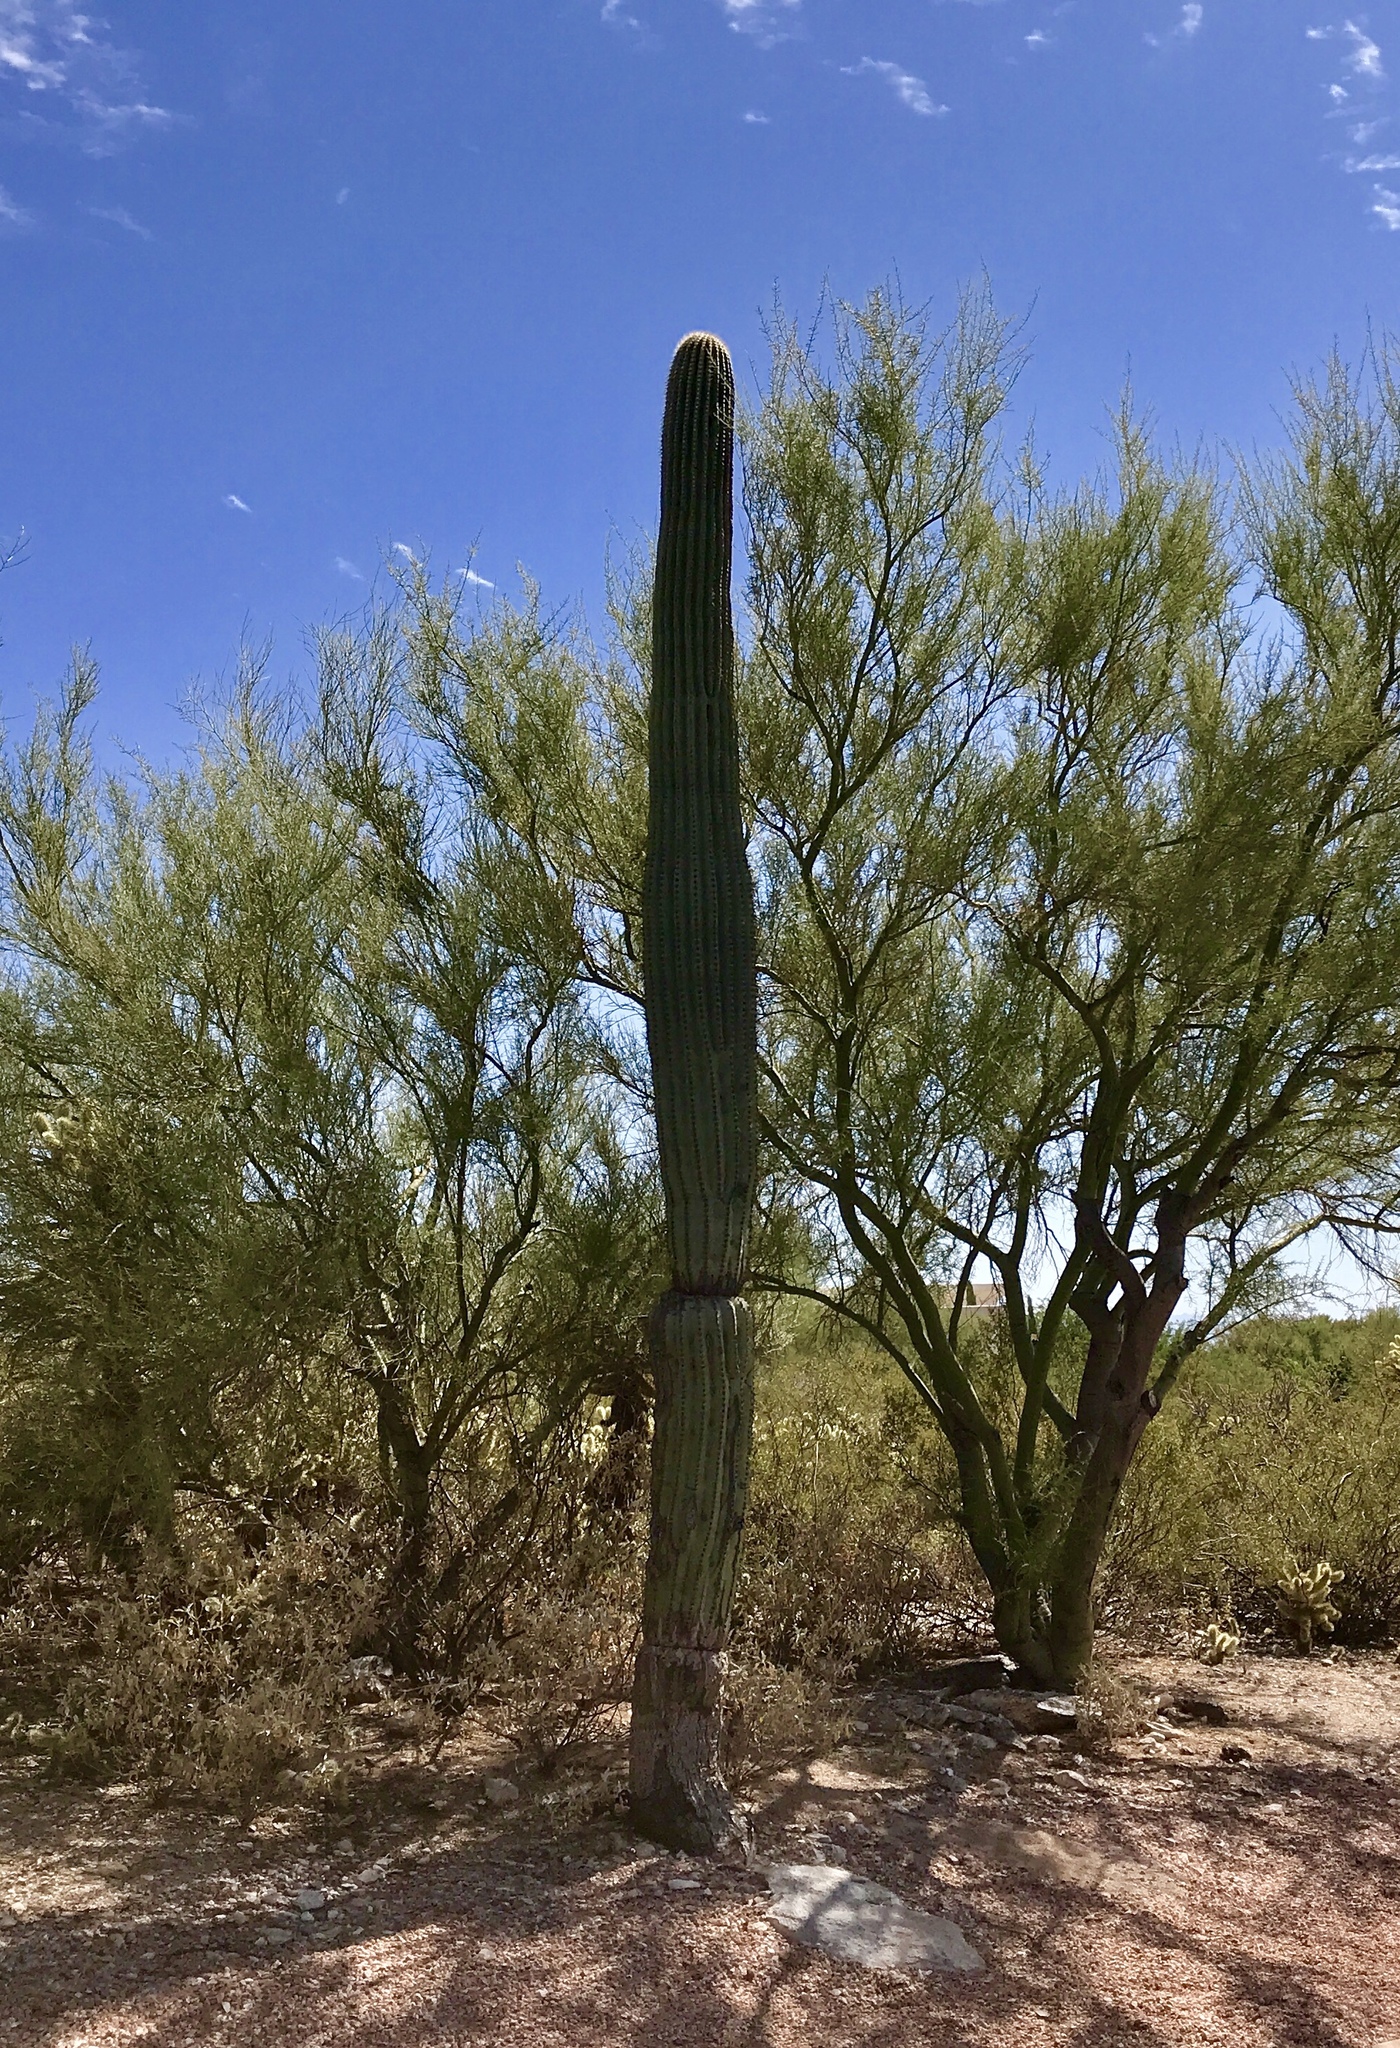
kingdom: Plantae
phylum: Tracheophyta
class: Magnoliopsida
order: Caryophyllales
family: Cactaceae
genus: Carnegiea
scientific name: Carnegiea gigantea
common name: Saguaro
